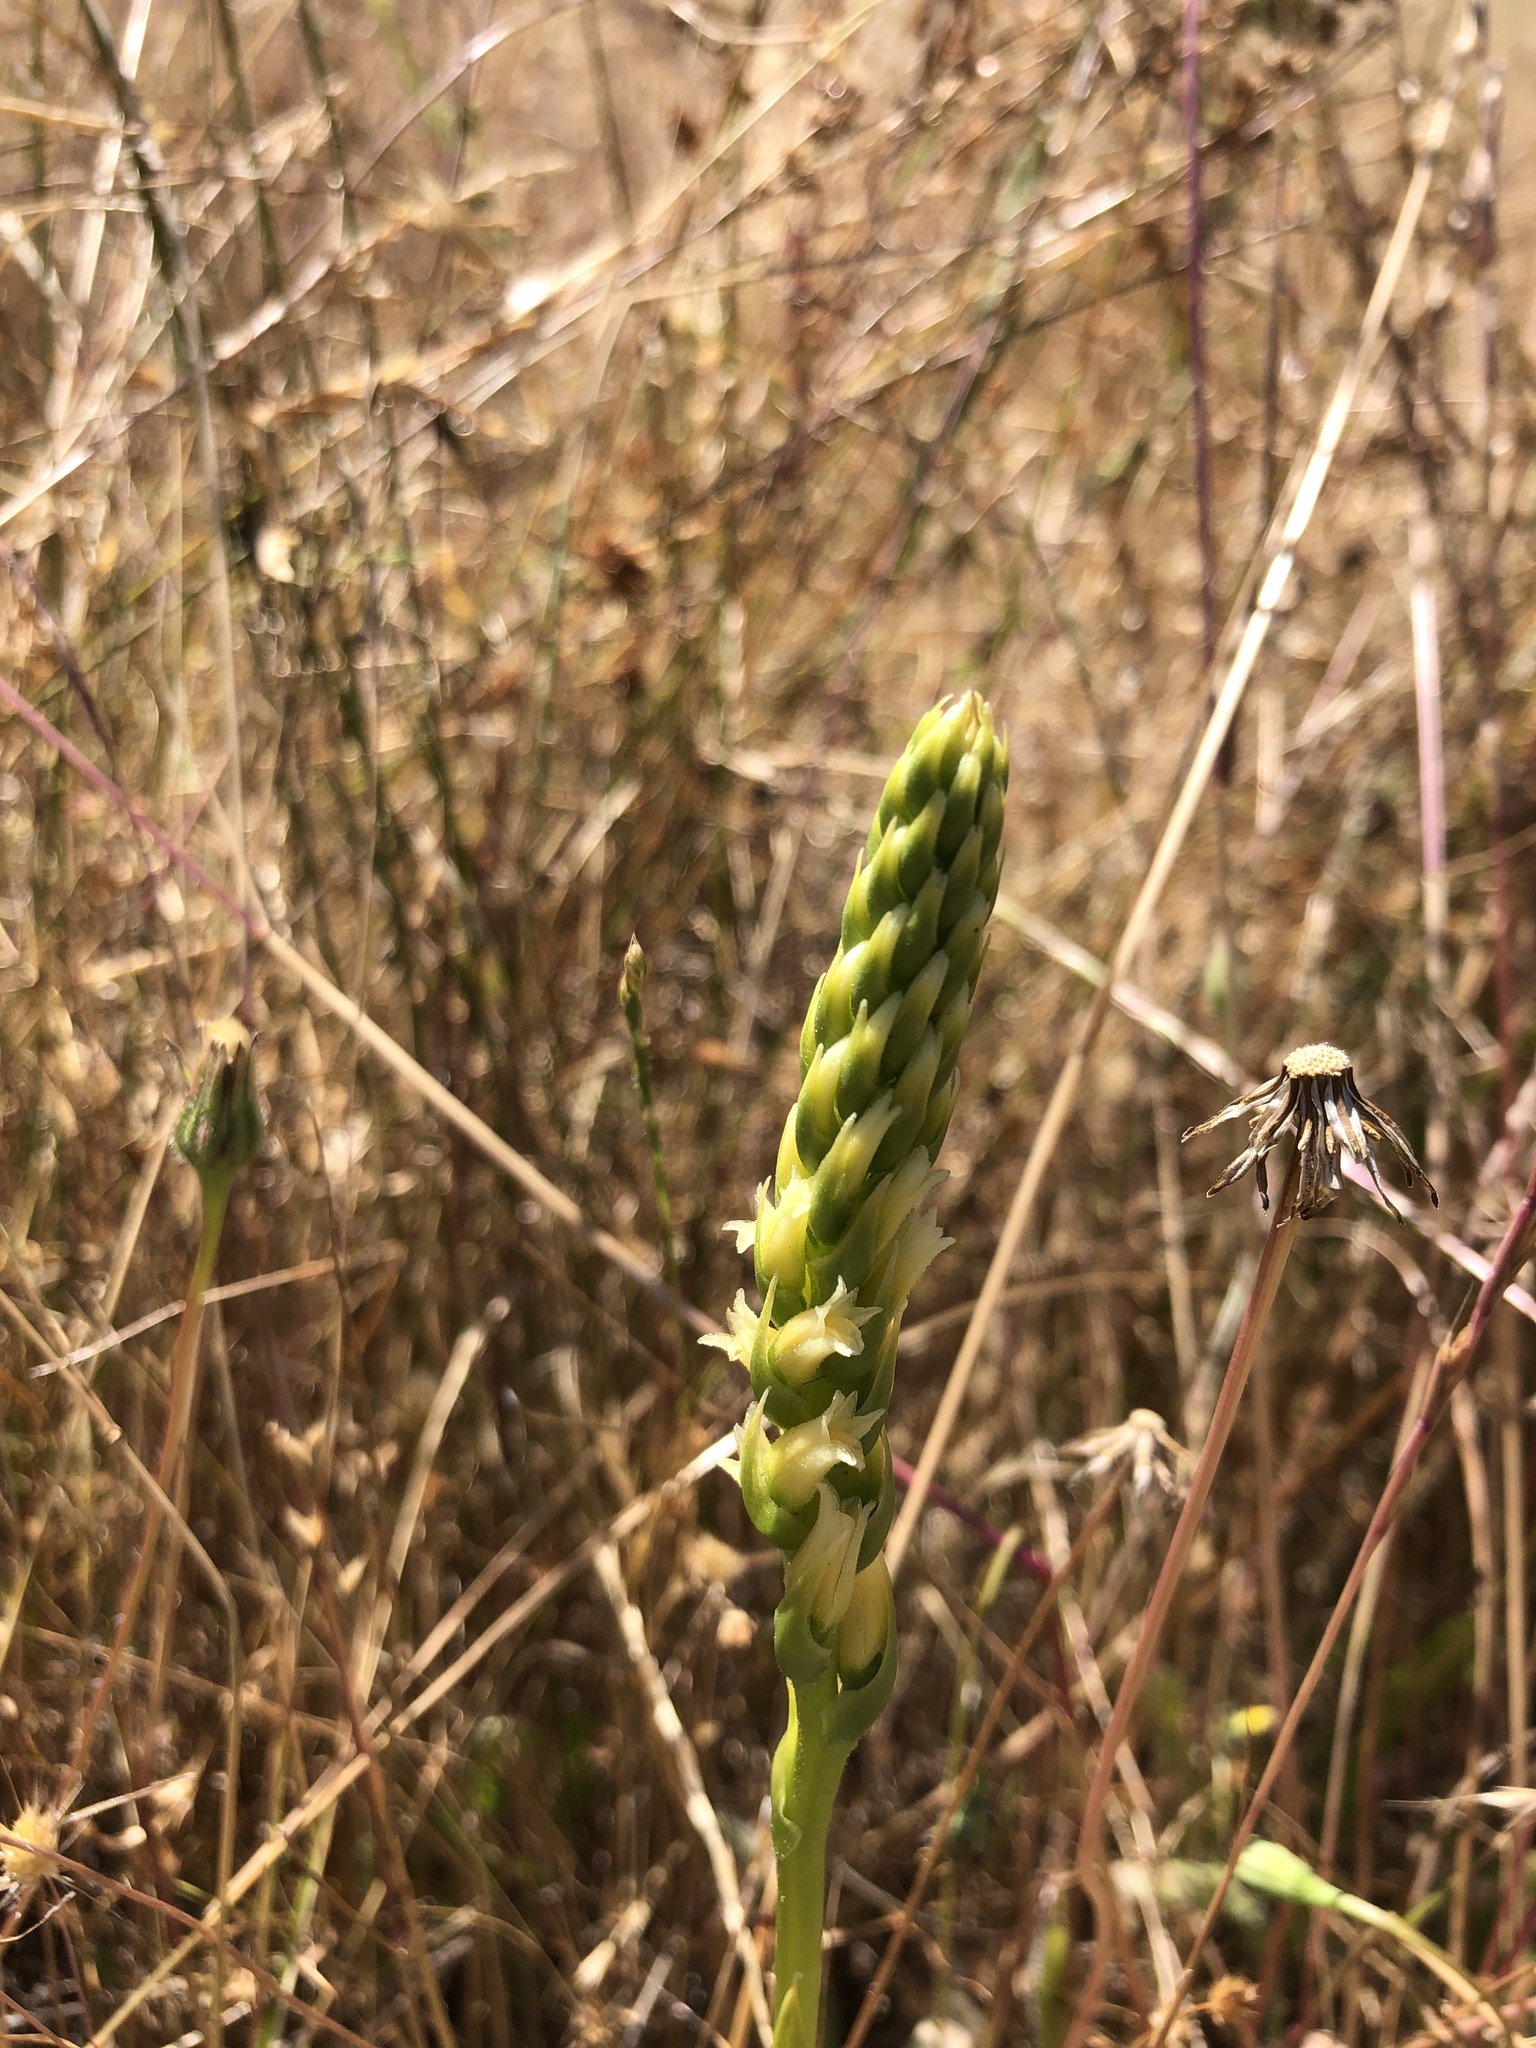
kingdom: Plantae
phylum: Tracheophyta
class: Liliopsida
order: Asparagales
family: Orchidaceae
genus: Spiranthes
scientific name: Spiranthes porrifolia
